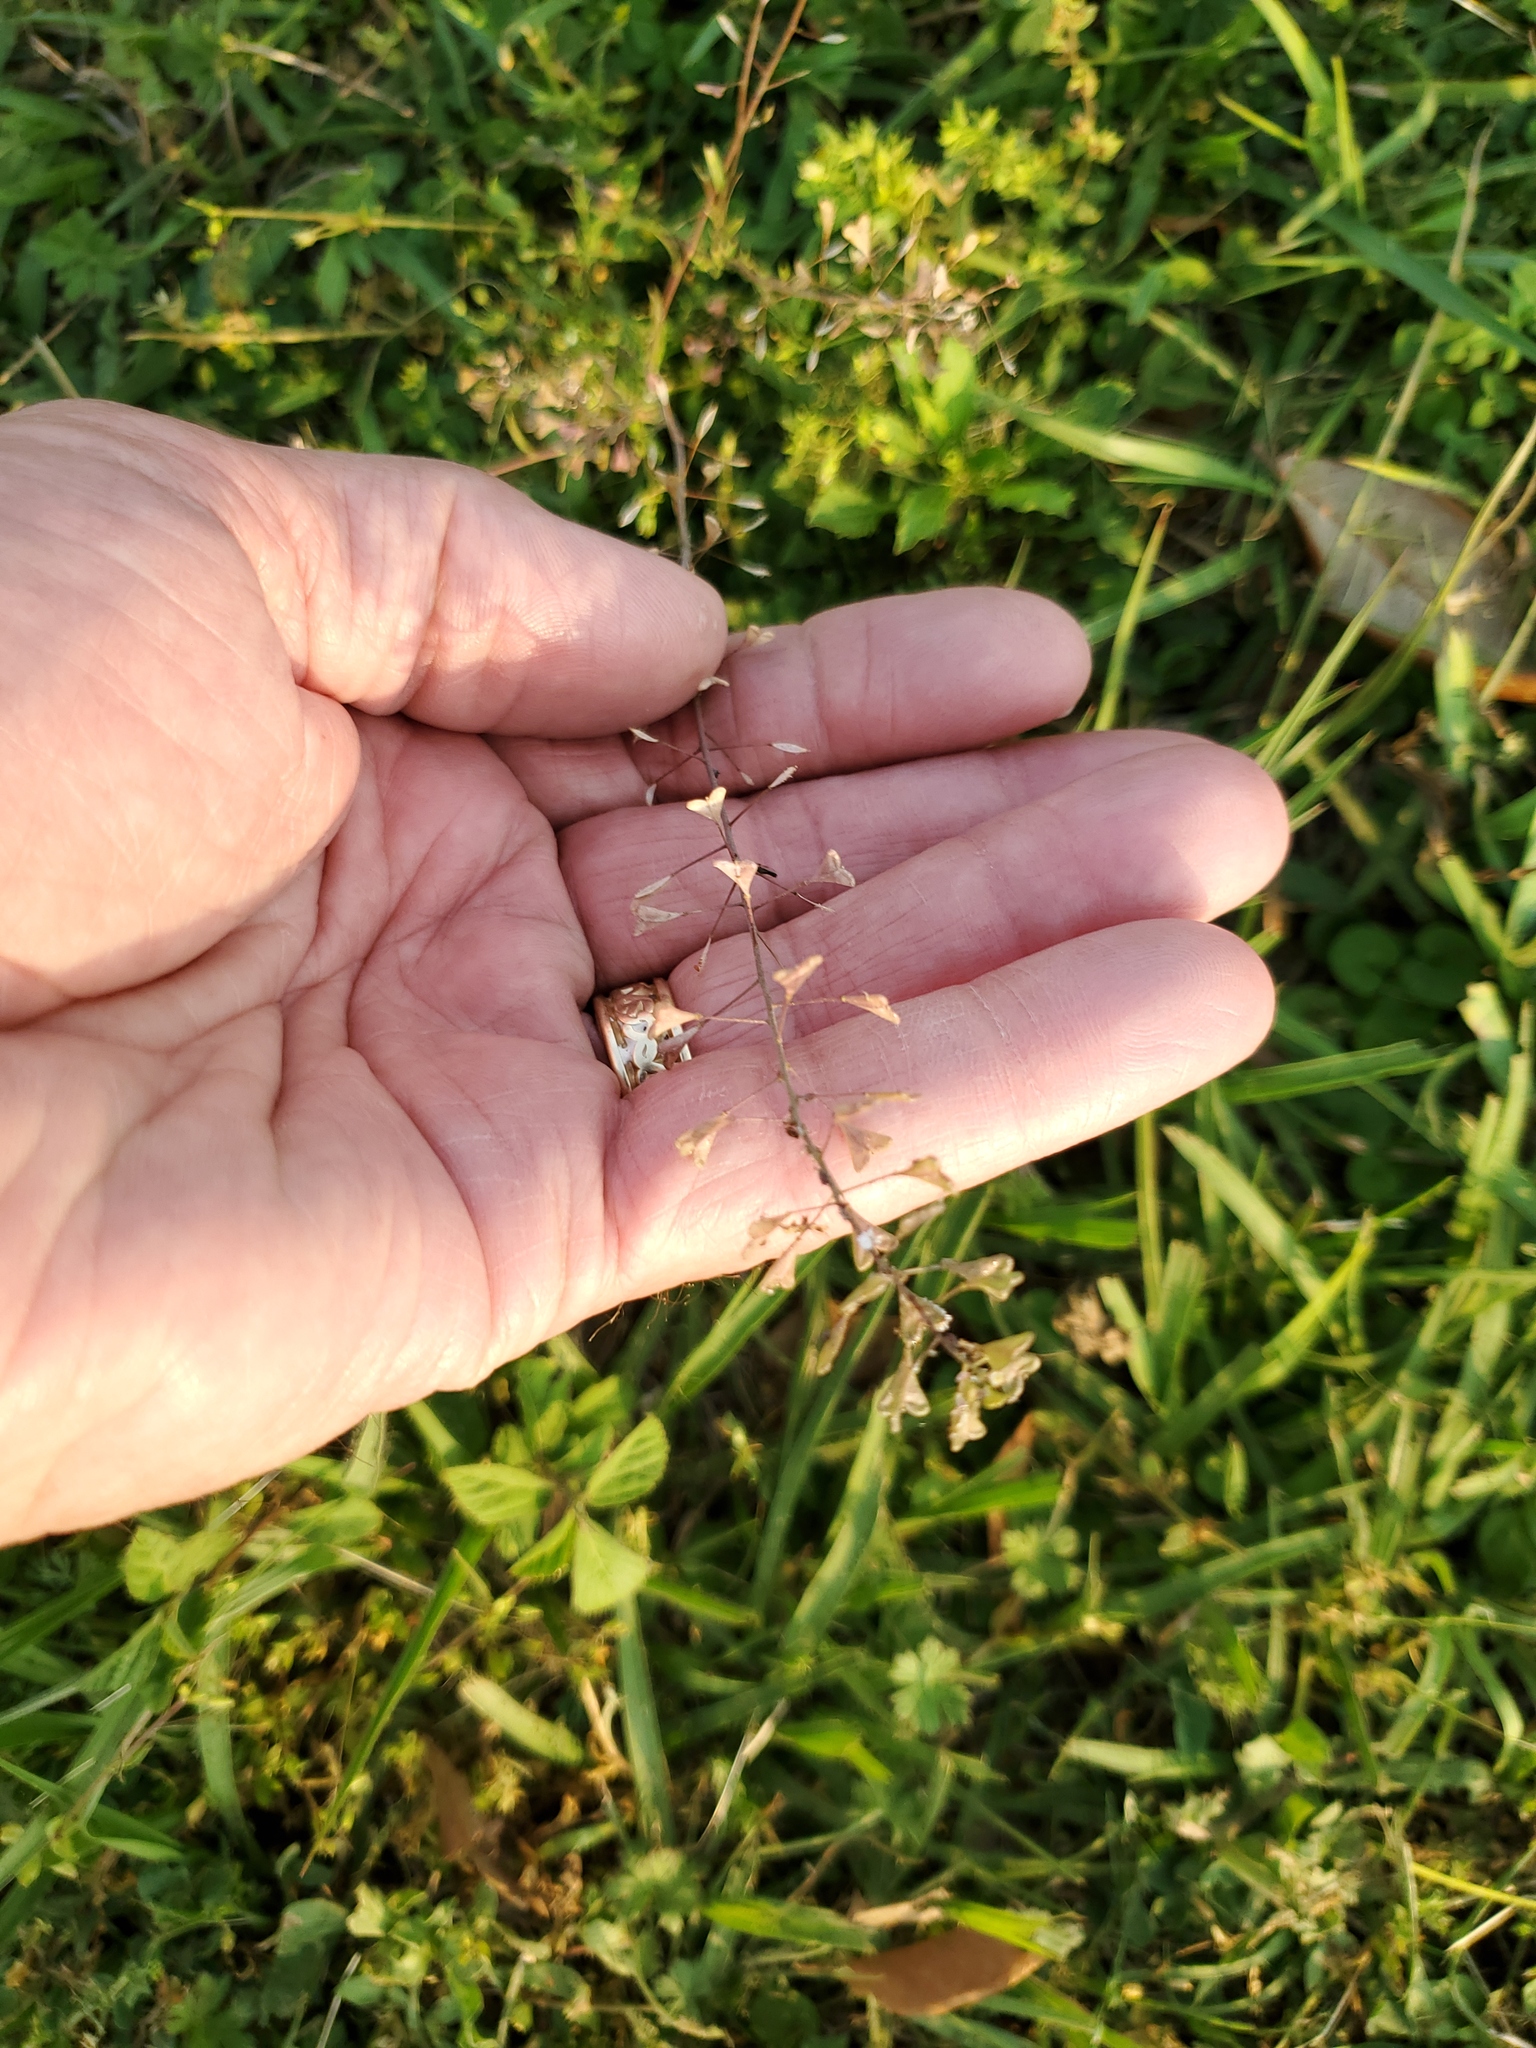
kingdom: Plantae
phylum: Tracheophyta
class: Magnoliopsida
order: Brassicales
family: Brassicaceae
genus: Capsella
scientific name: Capsella bursa-pastoris
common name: Shepherd's purse
